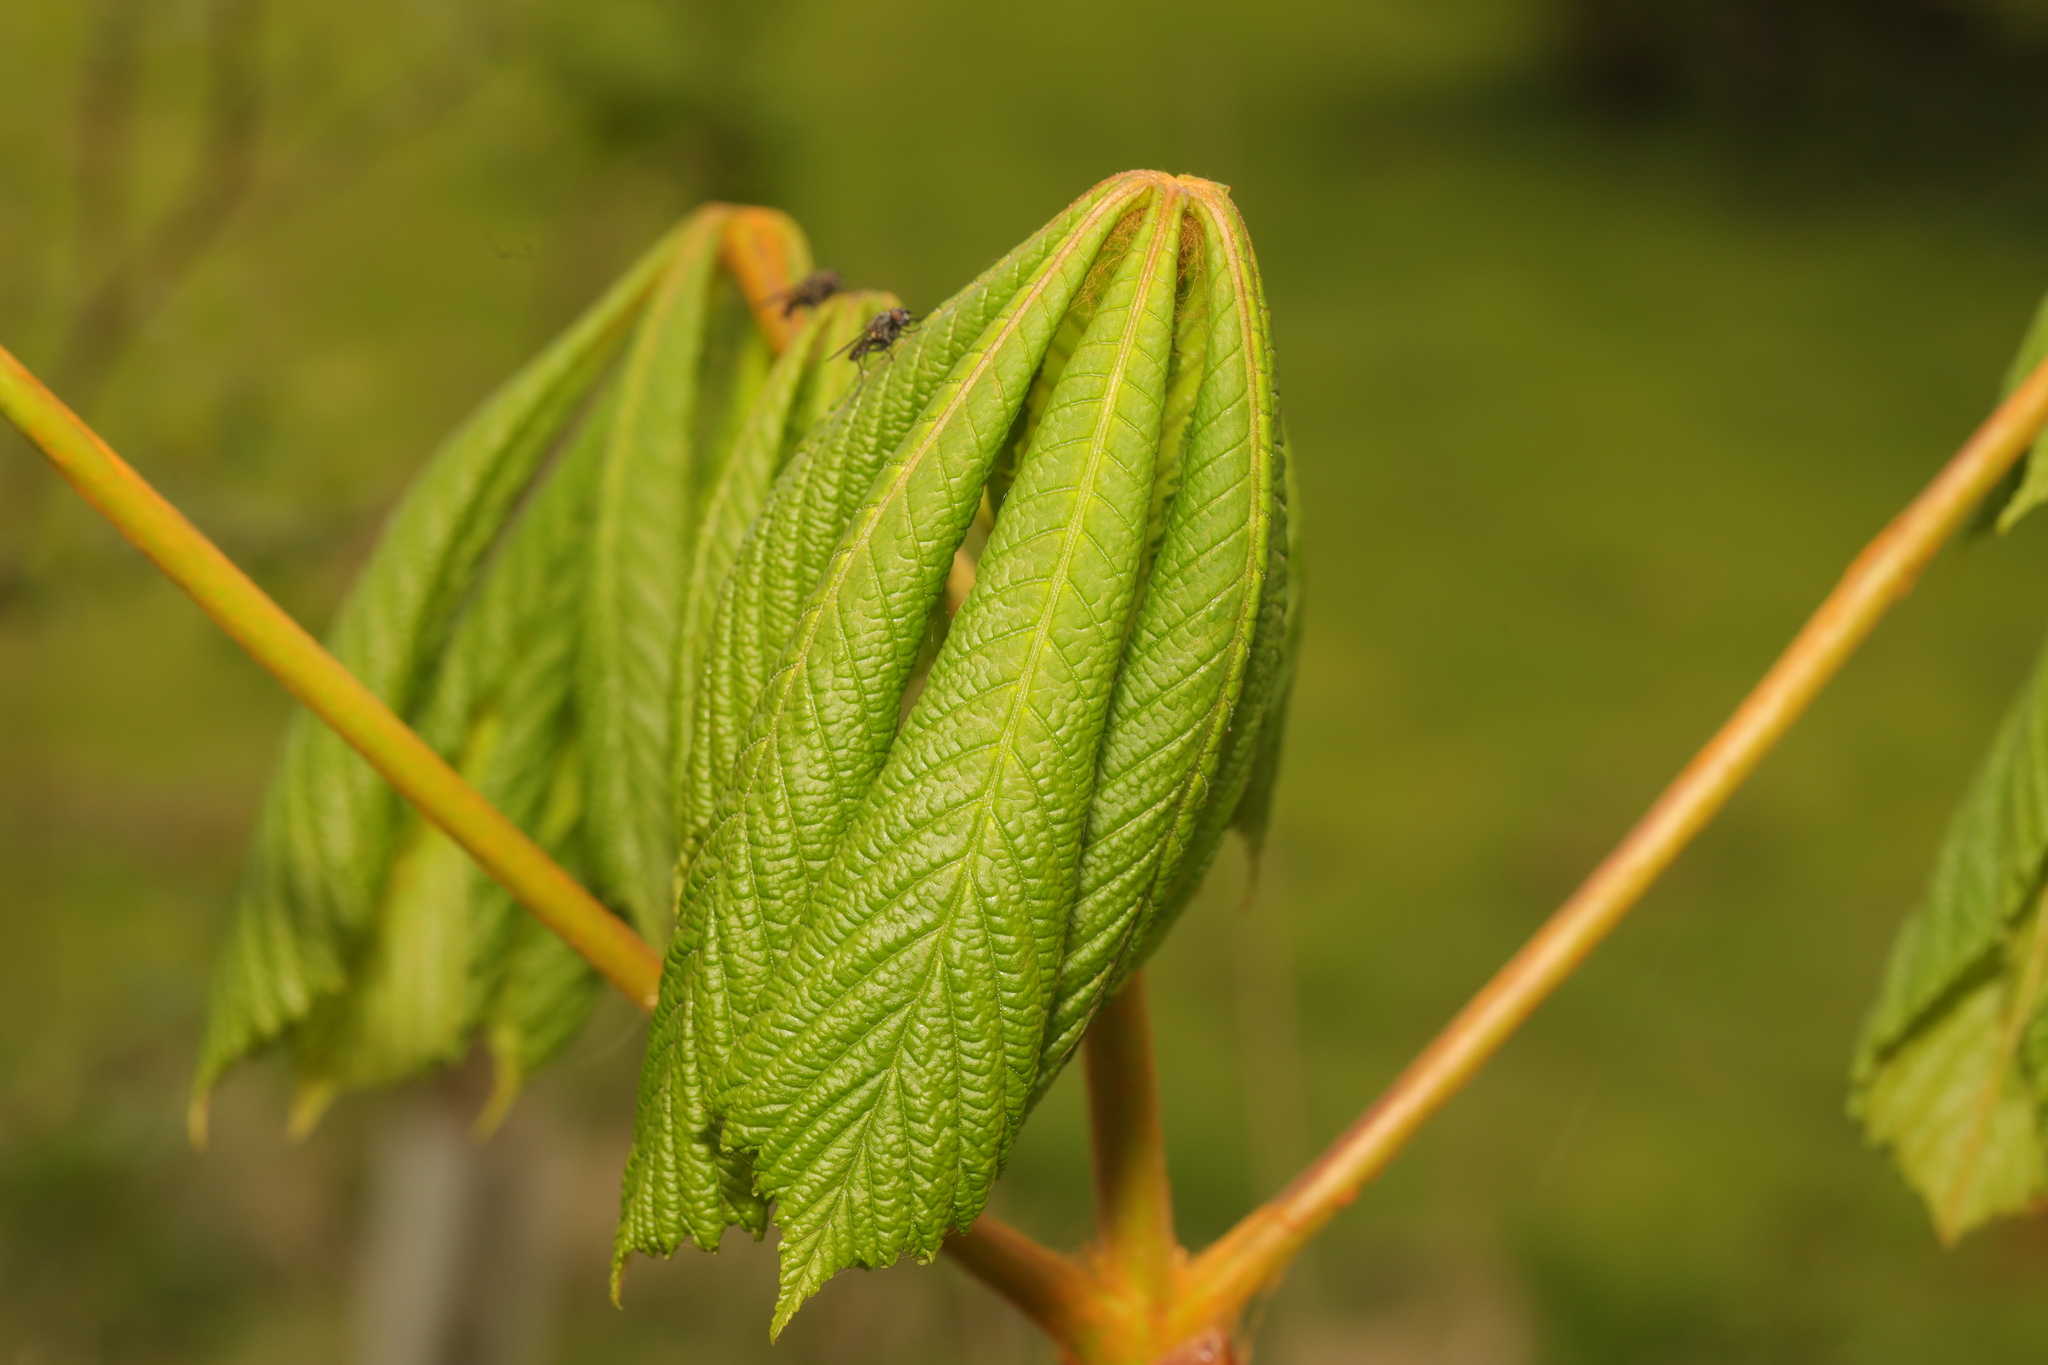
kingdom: Plantae
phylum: Tracheophyta
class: Magnoliopsida
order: Sapindales
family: Sapindaceae
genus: Aesculus
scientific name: Aesculus hippocastanum
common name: Horse-chestnut
